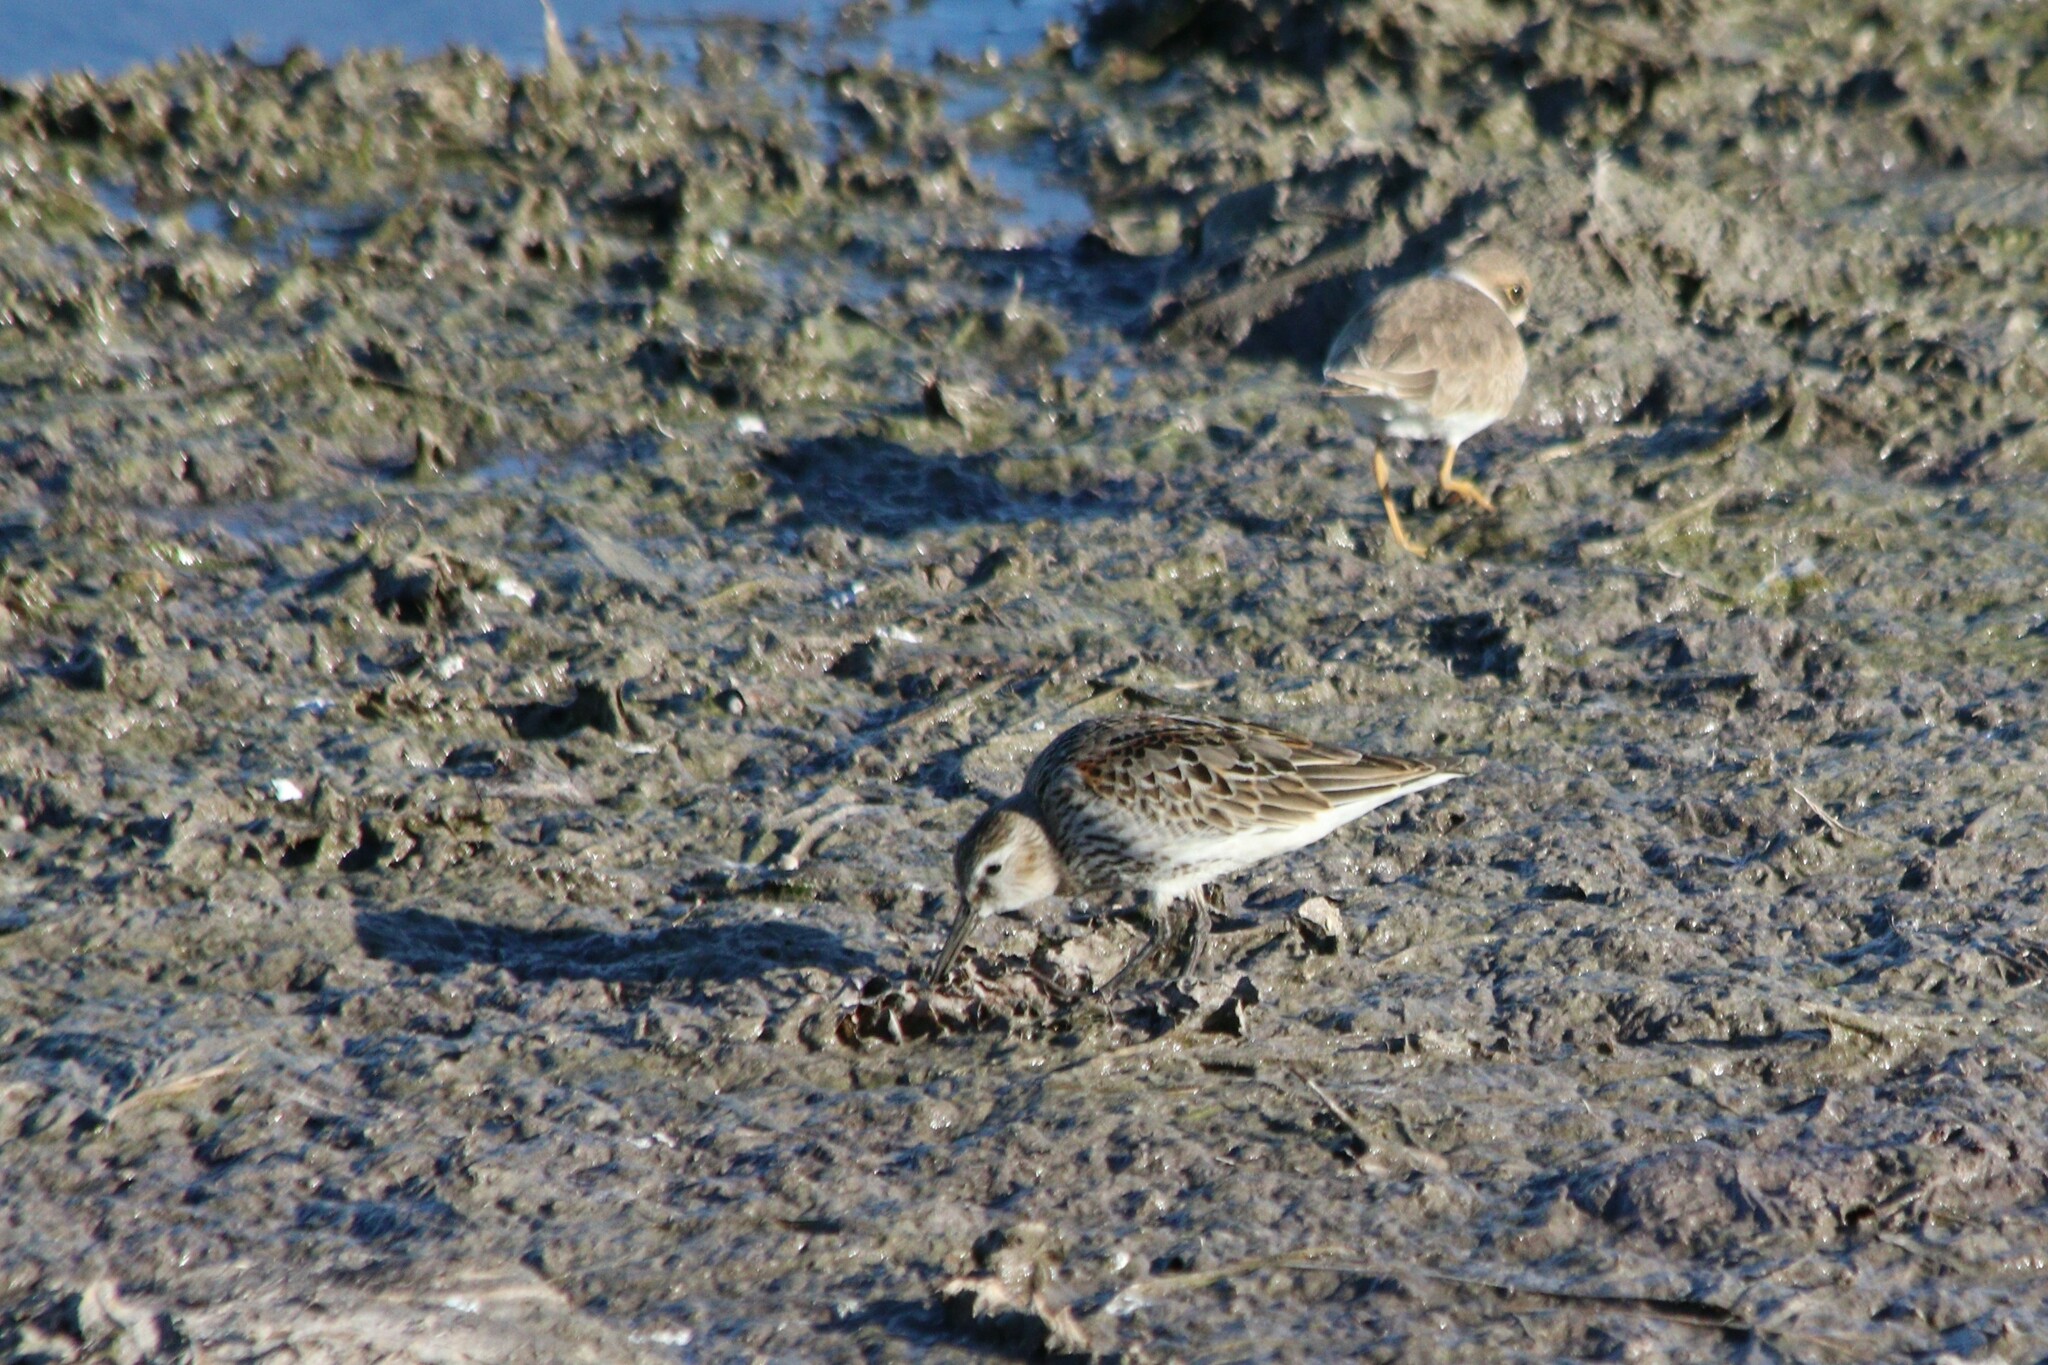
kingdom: Animalia
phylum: Chordata
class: Aves
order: Charadriiformes
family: Scolopacidae
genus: Calidris
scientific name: Calidris alpina
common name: Dunlin
